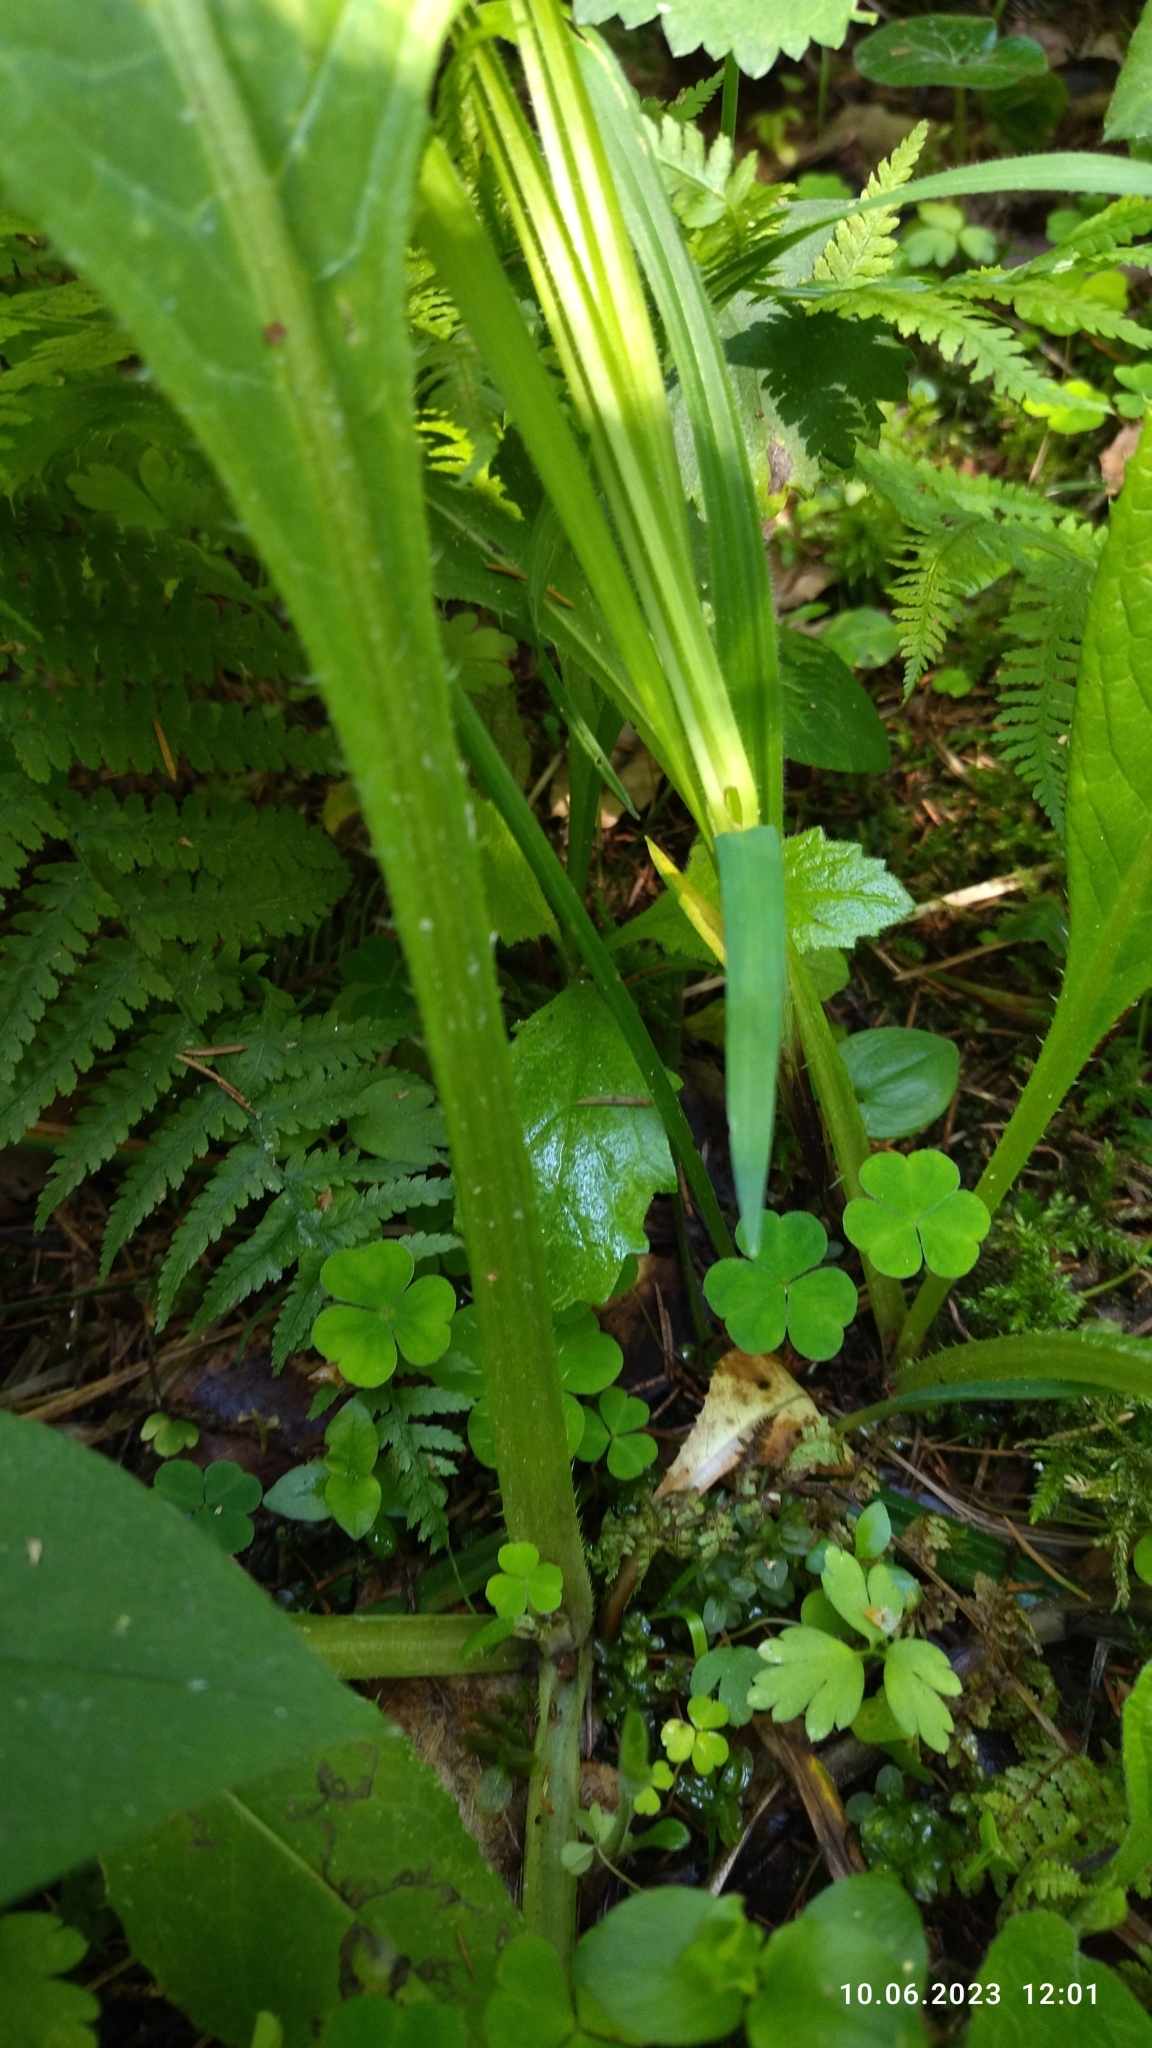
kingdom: Plantae
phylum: Tracheophyta
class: Magnoliopsida
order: Asterales
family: Asteraceae
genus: Cirsium
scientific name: Cirsium heterophyllum
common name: Melancholy thistle
